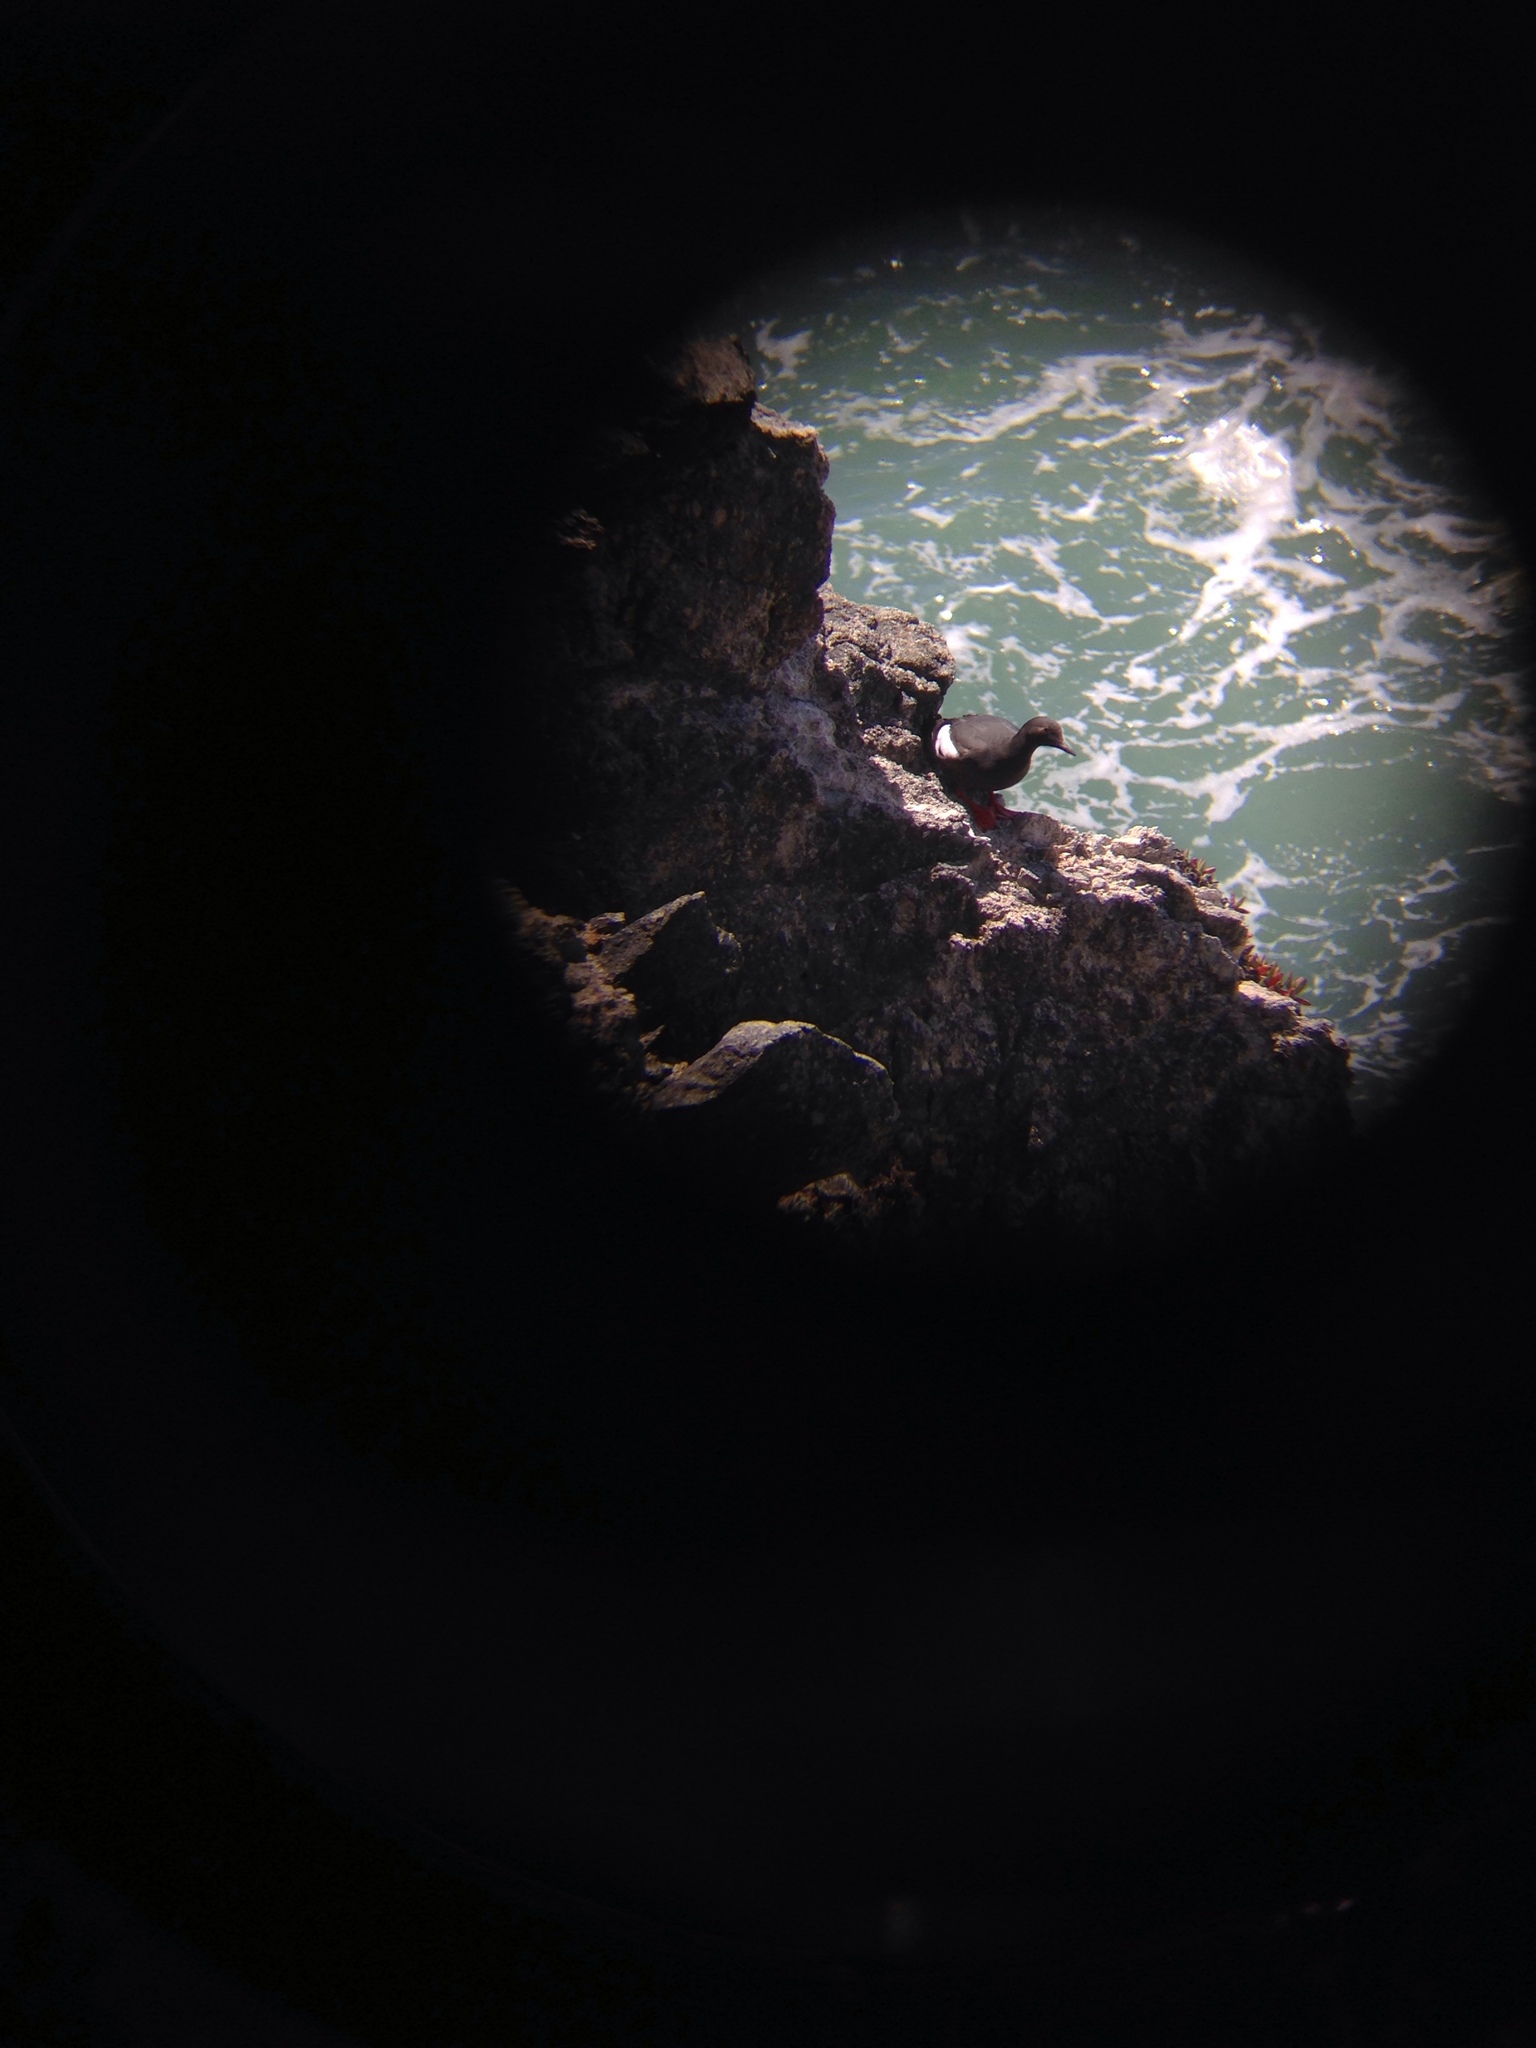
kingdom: Animalia
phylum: Chordata
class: Aves
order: Charadriiformes
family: Alcidae
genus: Cepphus
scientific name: Cepphus columba
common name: Pigeon guillemot
